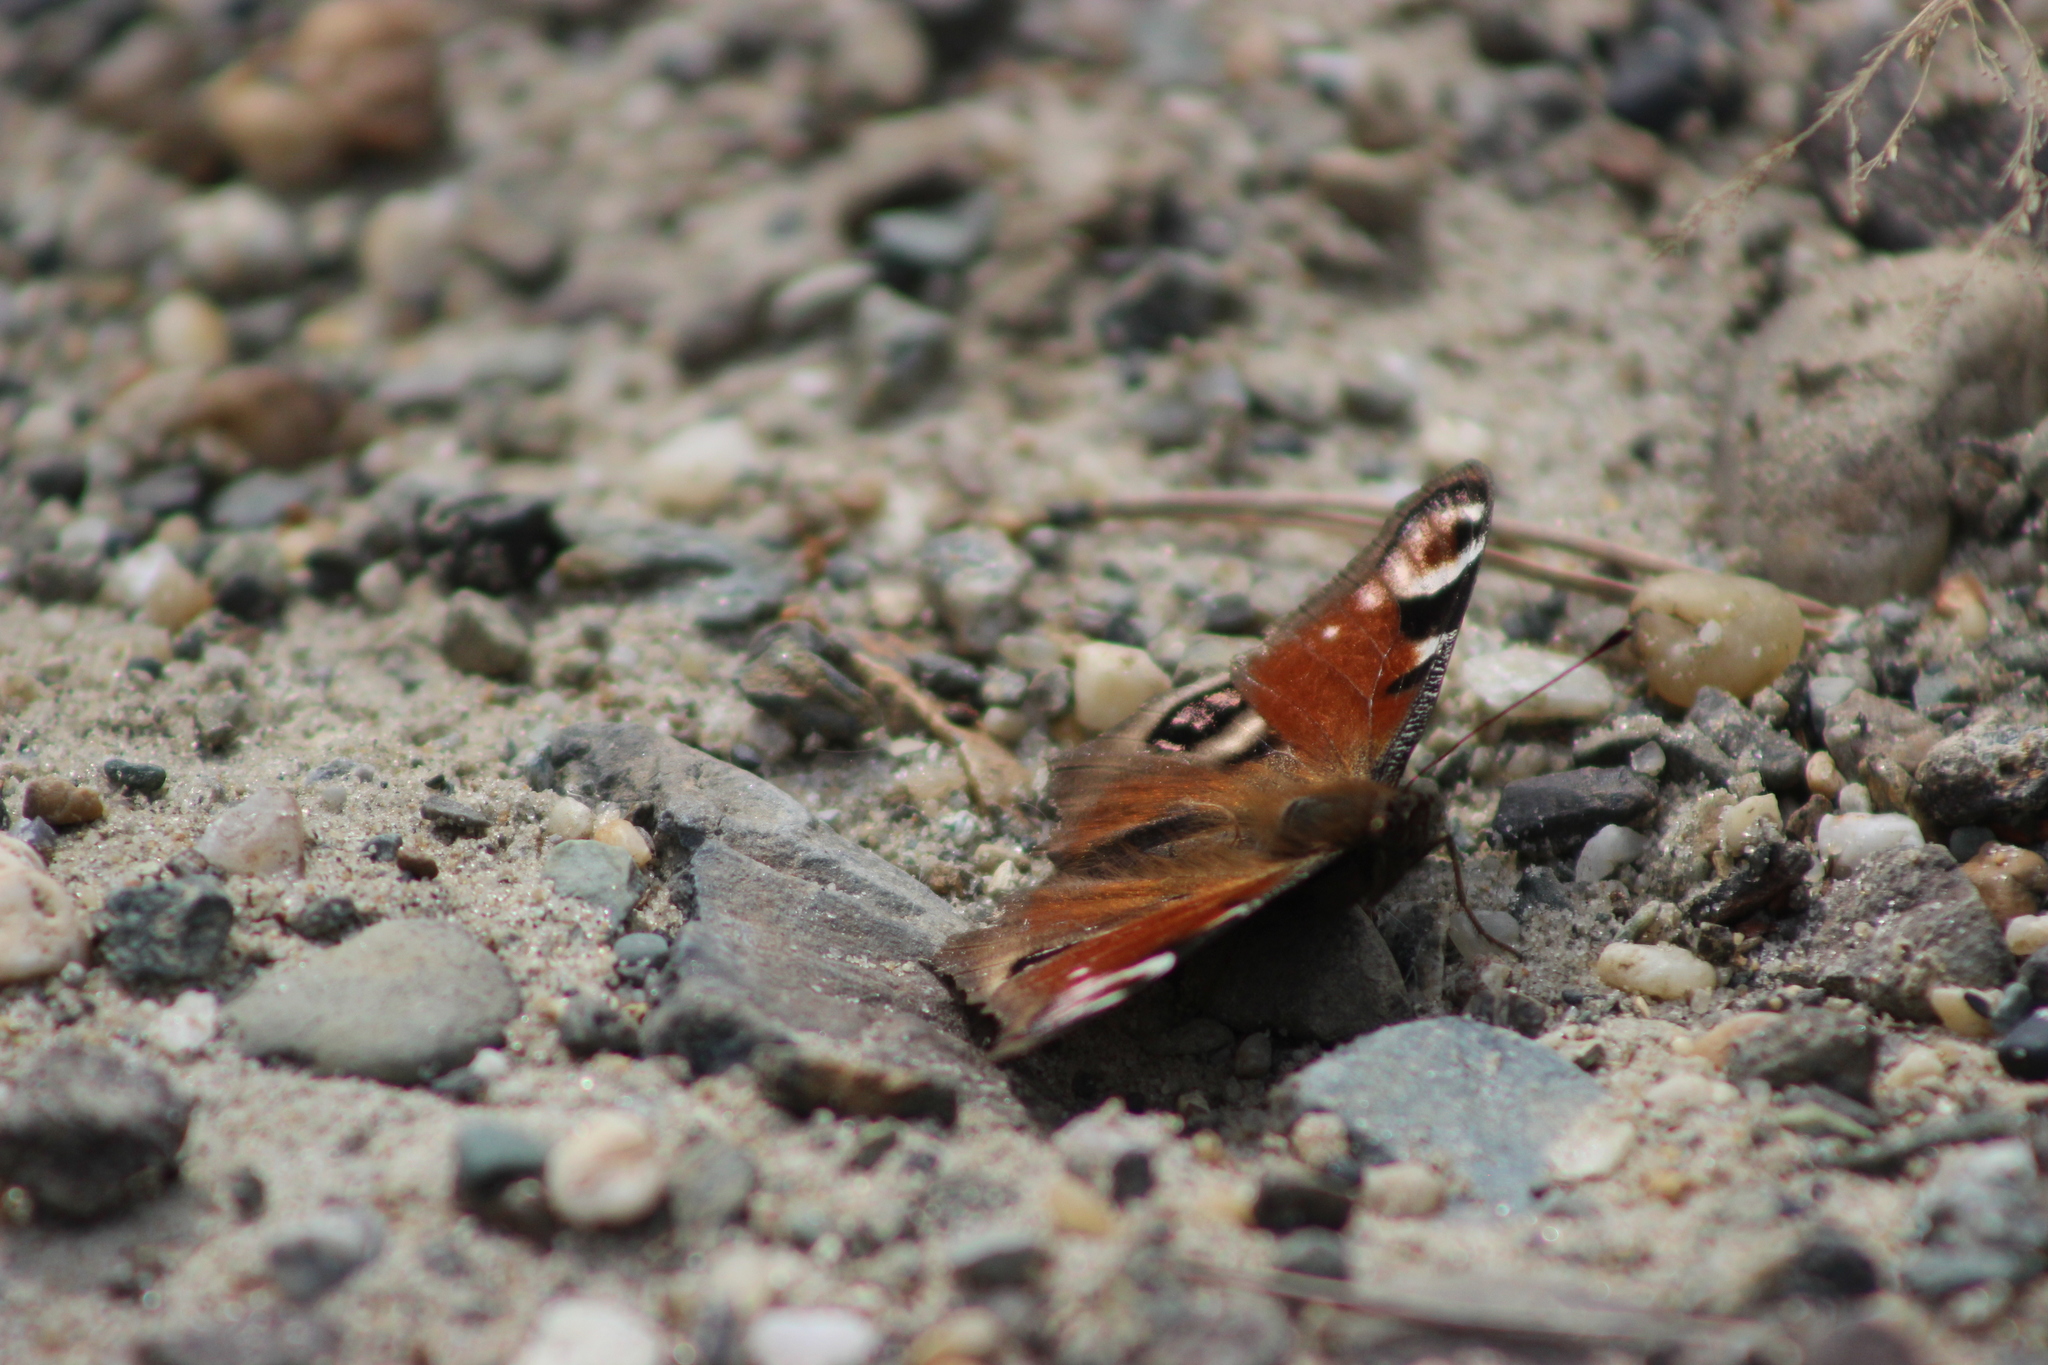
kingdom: Animalia
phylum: Arthropoda
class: Insecta
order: Lepidoptera
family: Nymphalidae
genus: Aglais
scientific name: Aglais io
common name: Peacock
